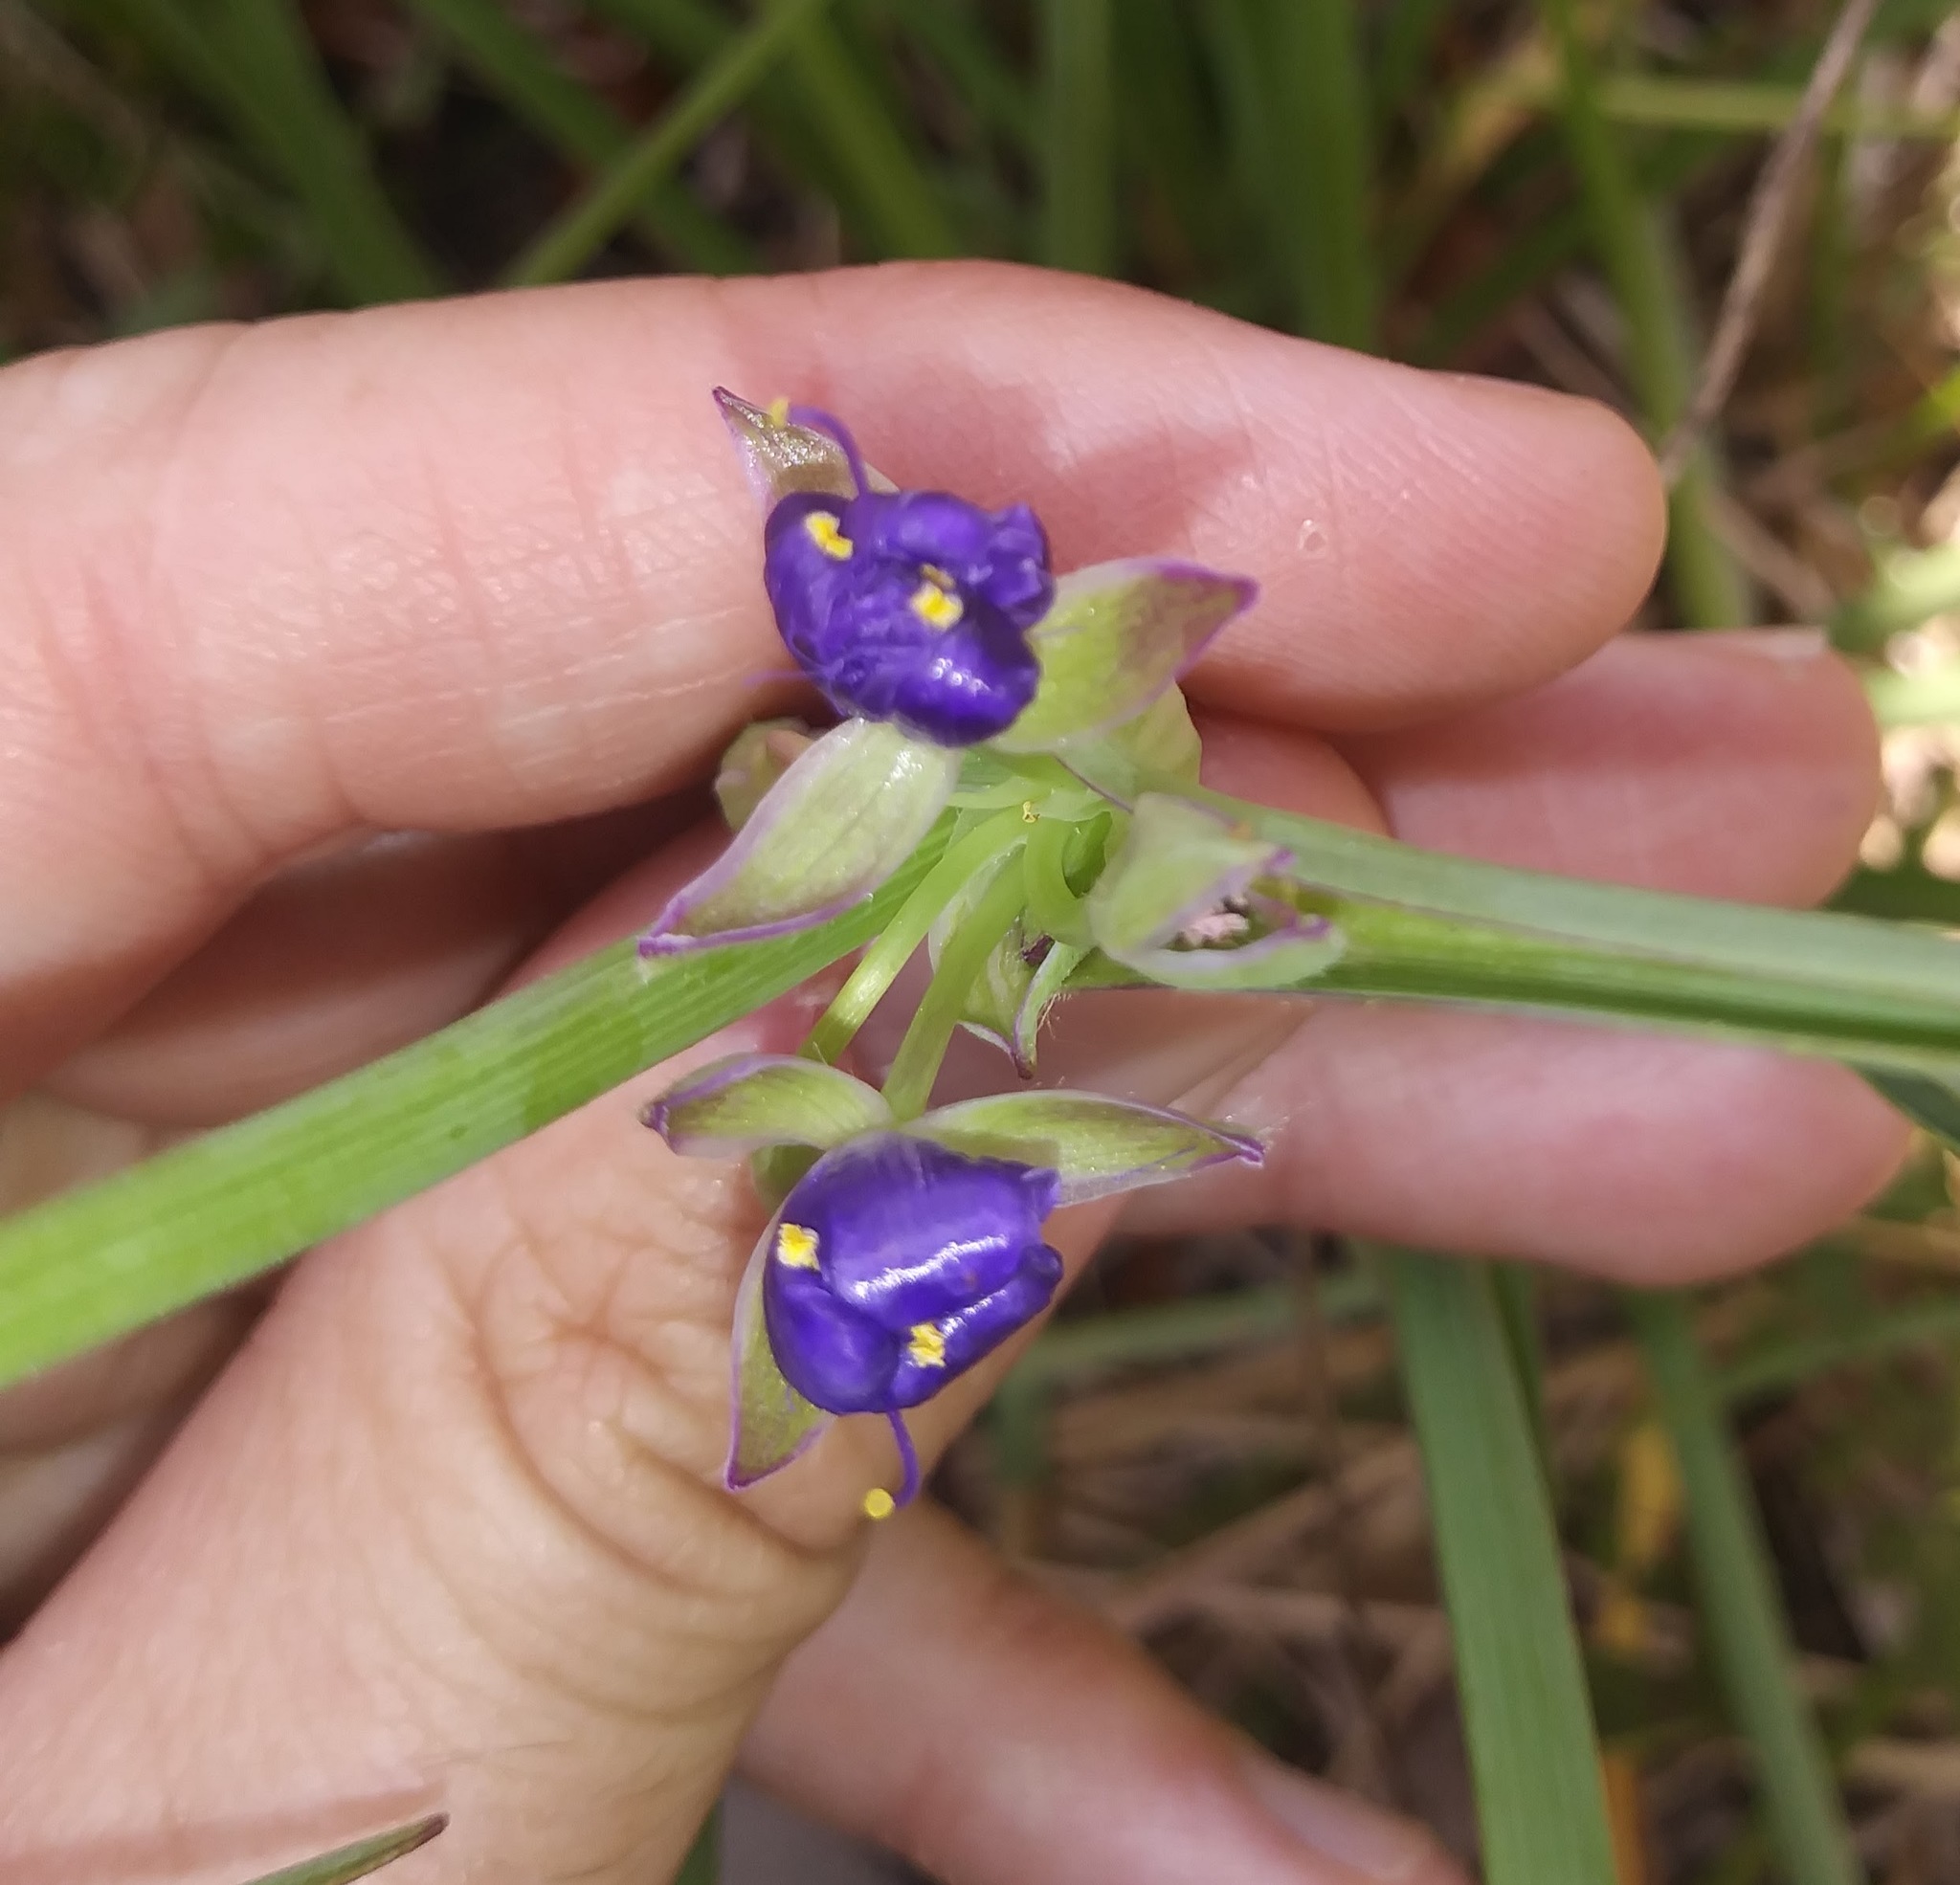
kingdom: Plantae
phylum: Tracheophyta
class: Liliopsida
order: Commelinales
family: Commelinaceae
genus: Tradescantia
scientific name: Tradescantia ohiensis
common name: Ohio spiderwort
